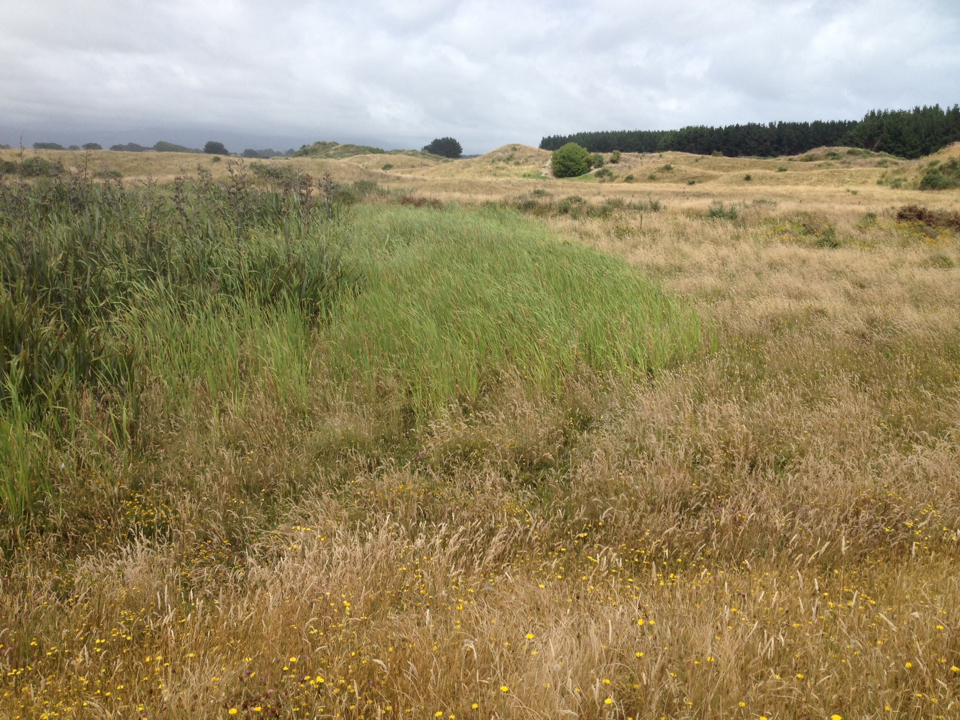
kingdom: Plantae
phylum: Tracheophyta
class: Liliopsida
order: Poales
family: Typhaceae
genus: Typha
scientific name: Typha orientalis
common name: Bullrush
